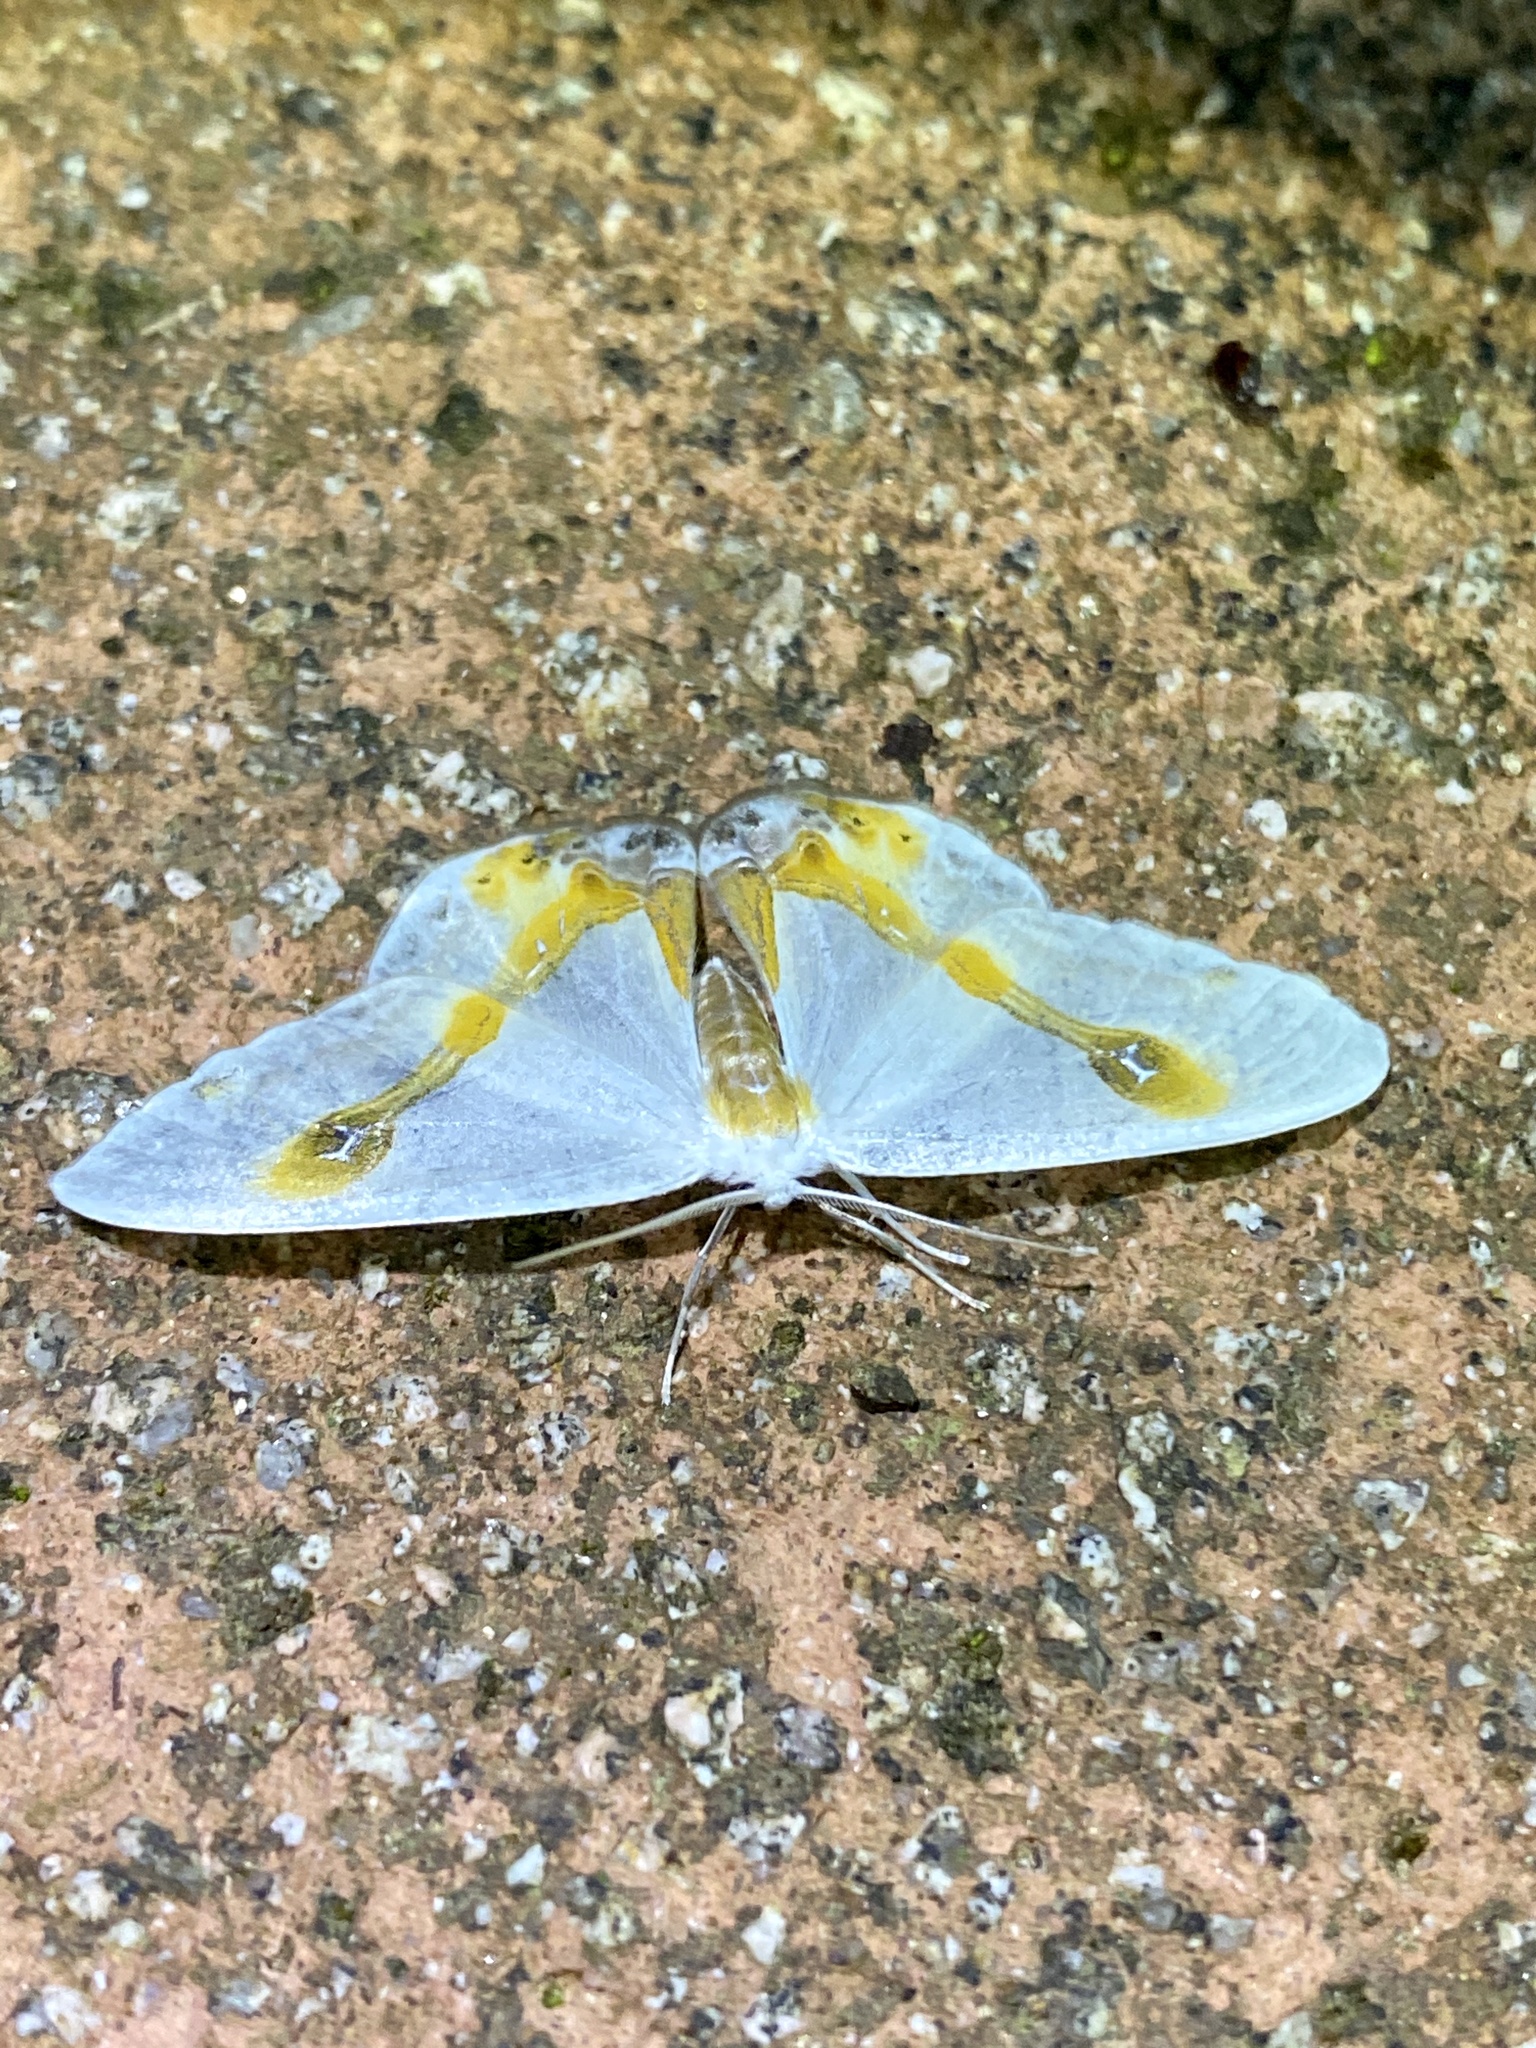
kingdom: Animalia
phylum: Arthropoda
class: Insecta
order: Lepidoptera
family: Drepanidae
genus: Macrocilix
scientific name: Macrocilix mysticata
